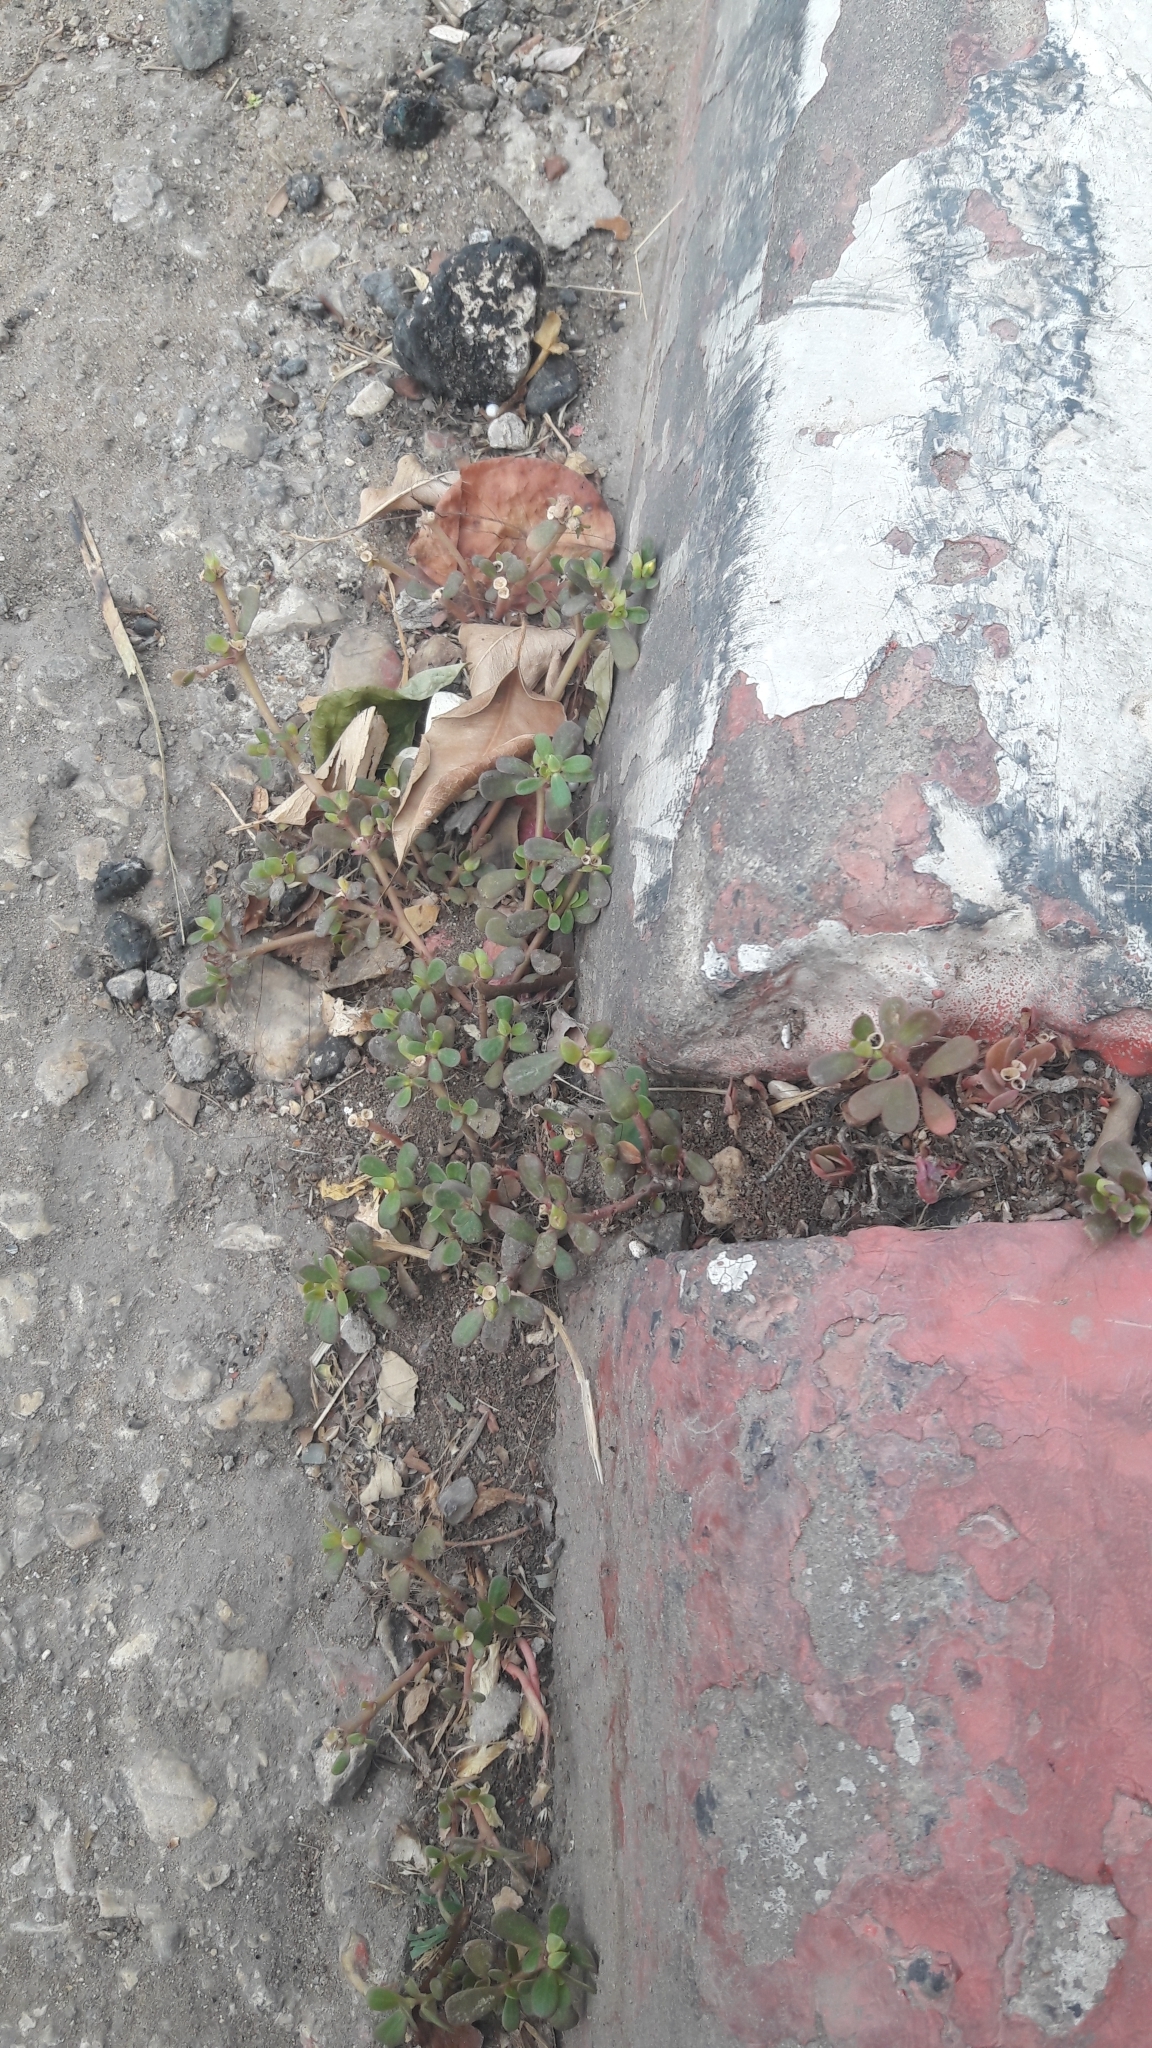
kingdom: Plantae
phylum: Tracheophyta
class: Magnoliopsida
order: Caryophyllales
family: Portulacaceae
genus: Portulaca
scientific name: Portulaca oleracea
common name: Common purslane
